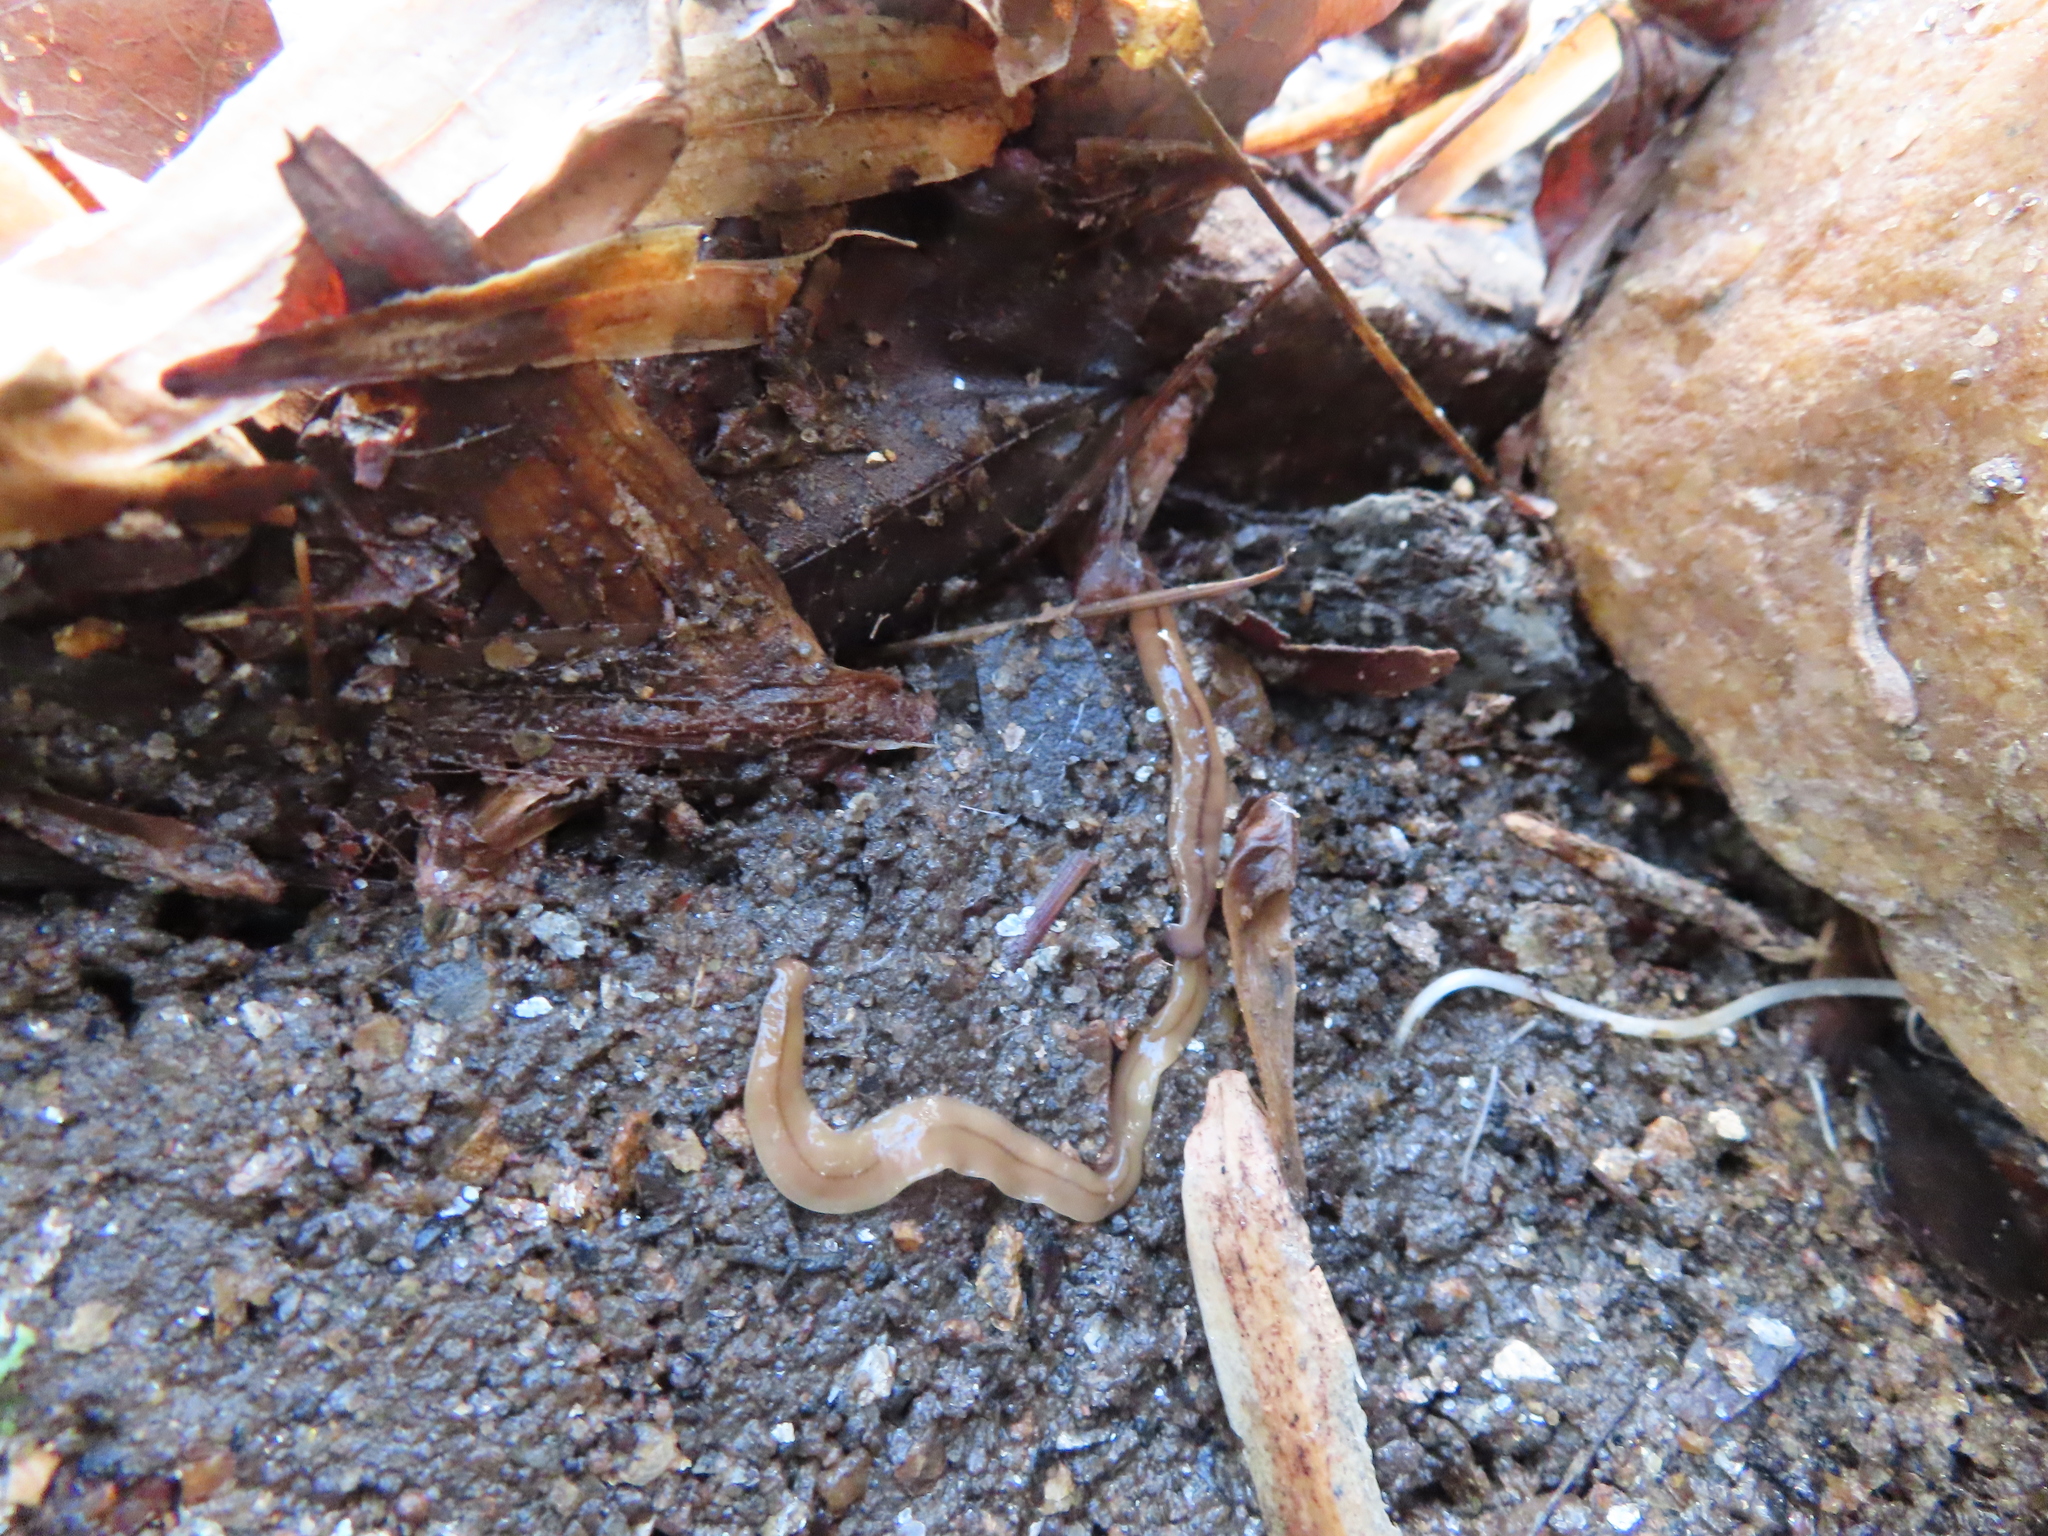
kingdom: Animalia
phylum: Platyhelminthes
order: Tricladida
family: Geoplanidae
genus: Bipalium
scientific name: Bipalium adventitium
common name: Land planarian
